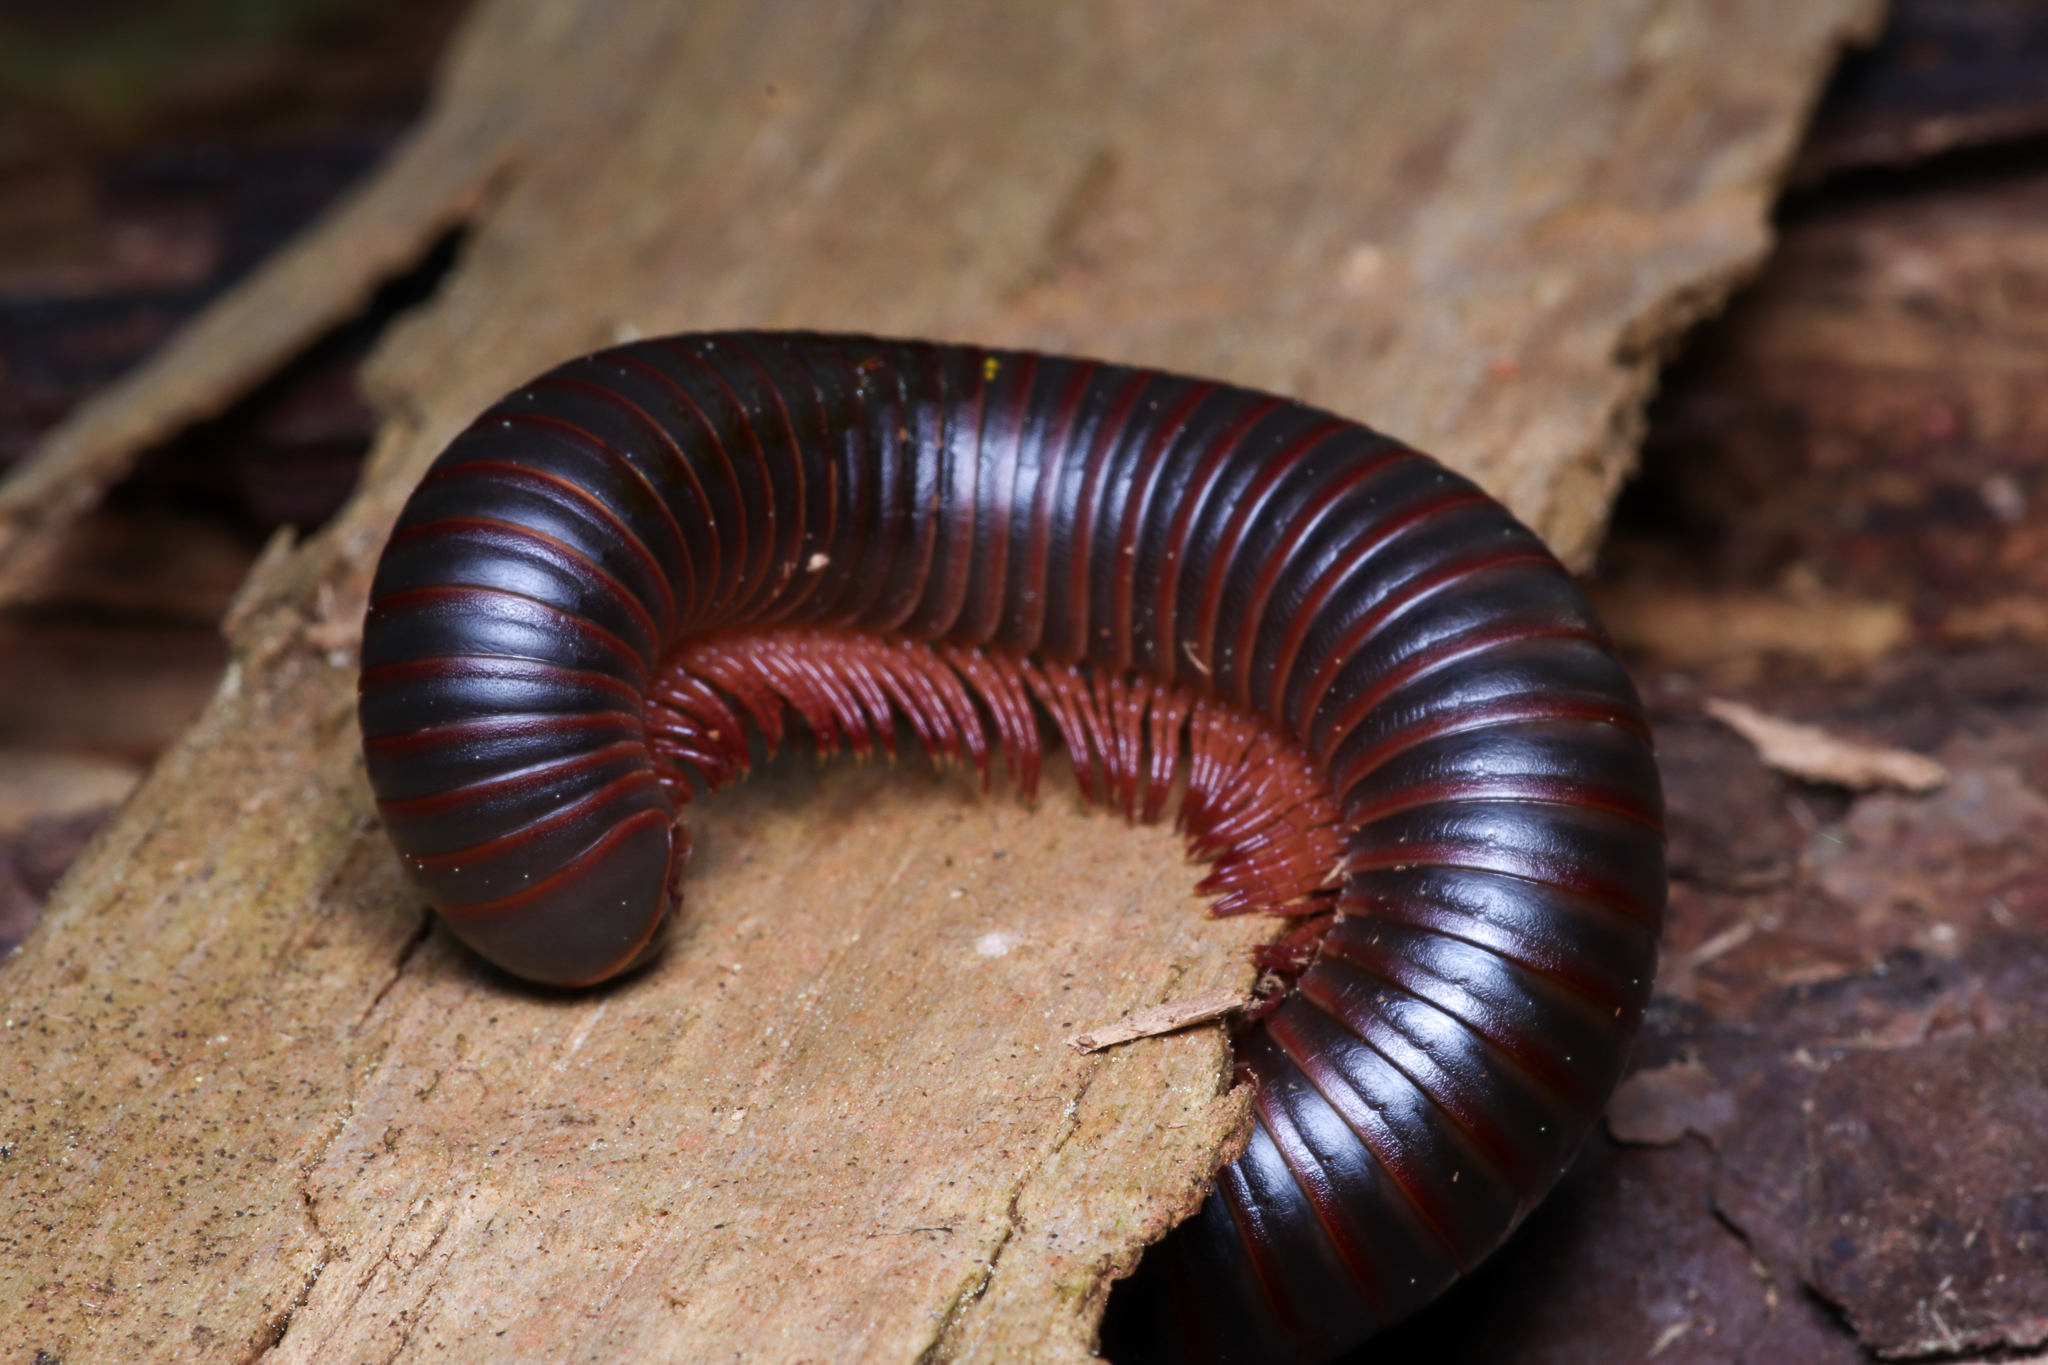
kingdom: Animalia
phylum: Arthropoda
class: Diplopoda
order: Spirobolida
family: Spirobolidae
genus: Narceus
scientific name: Narceus
